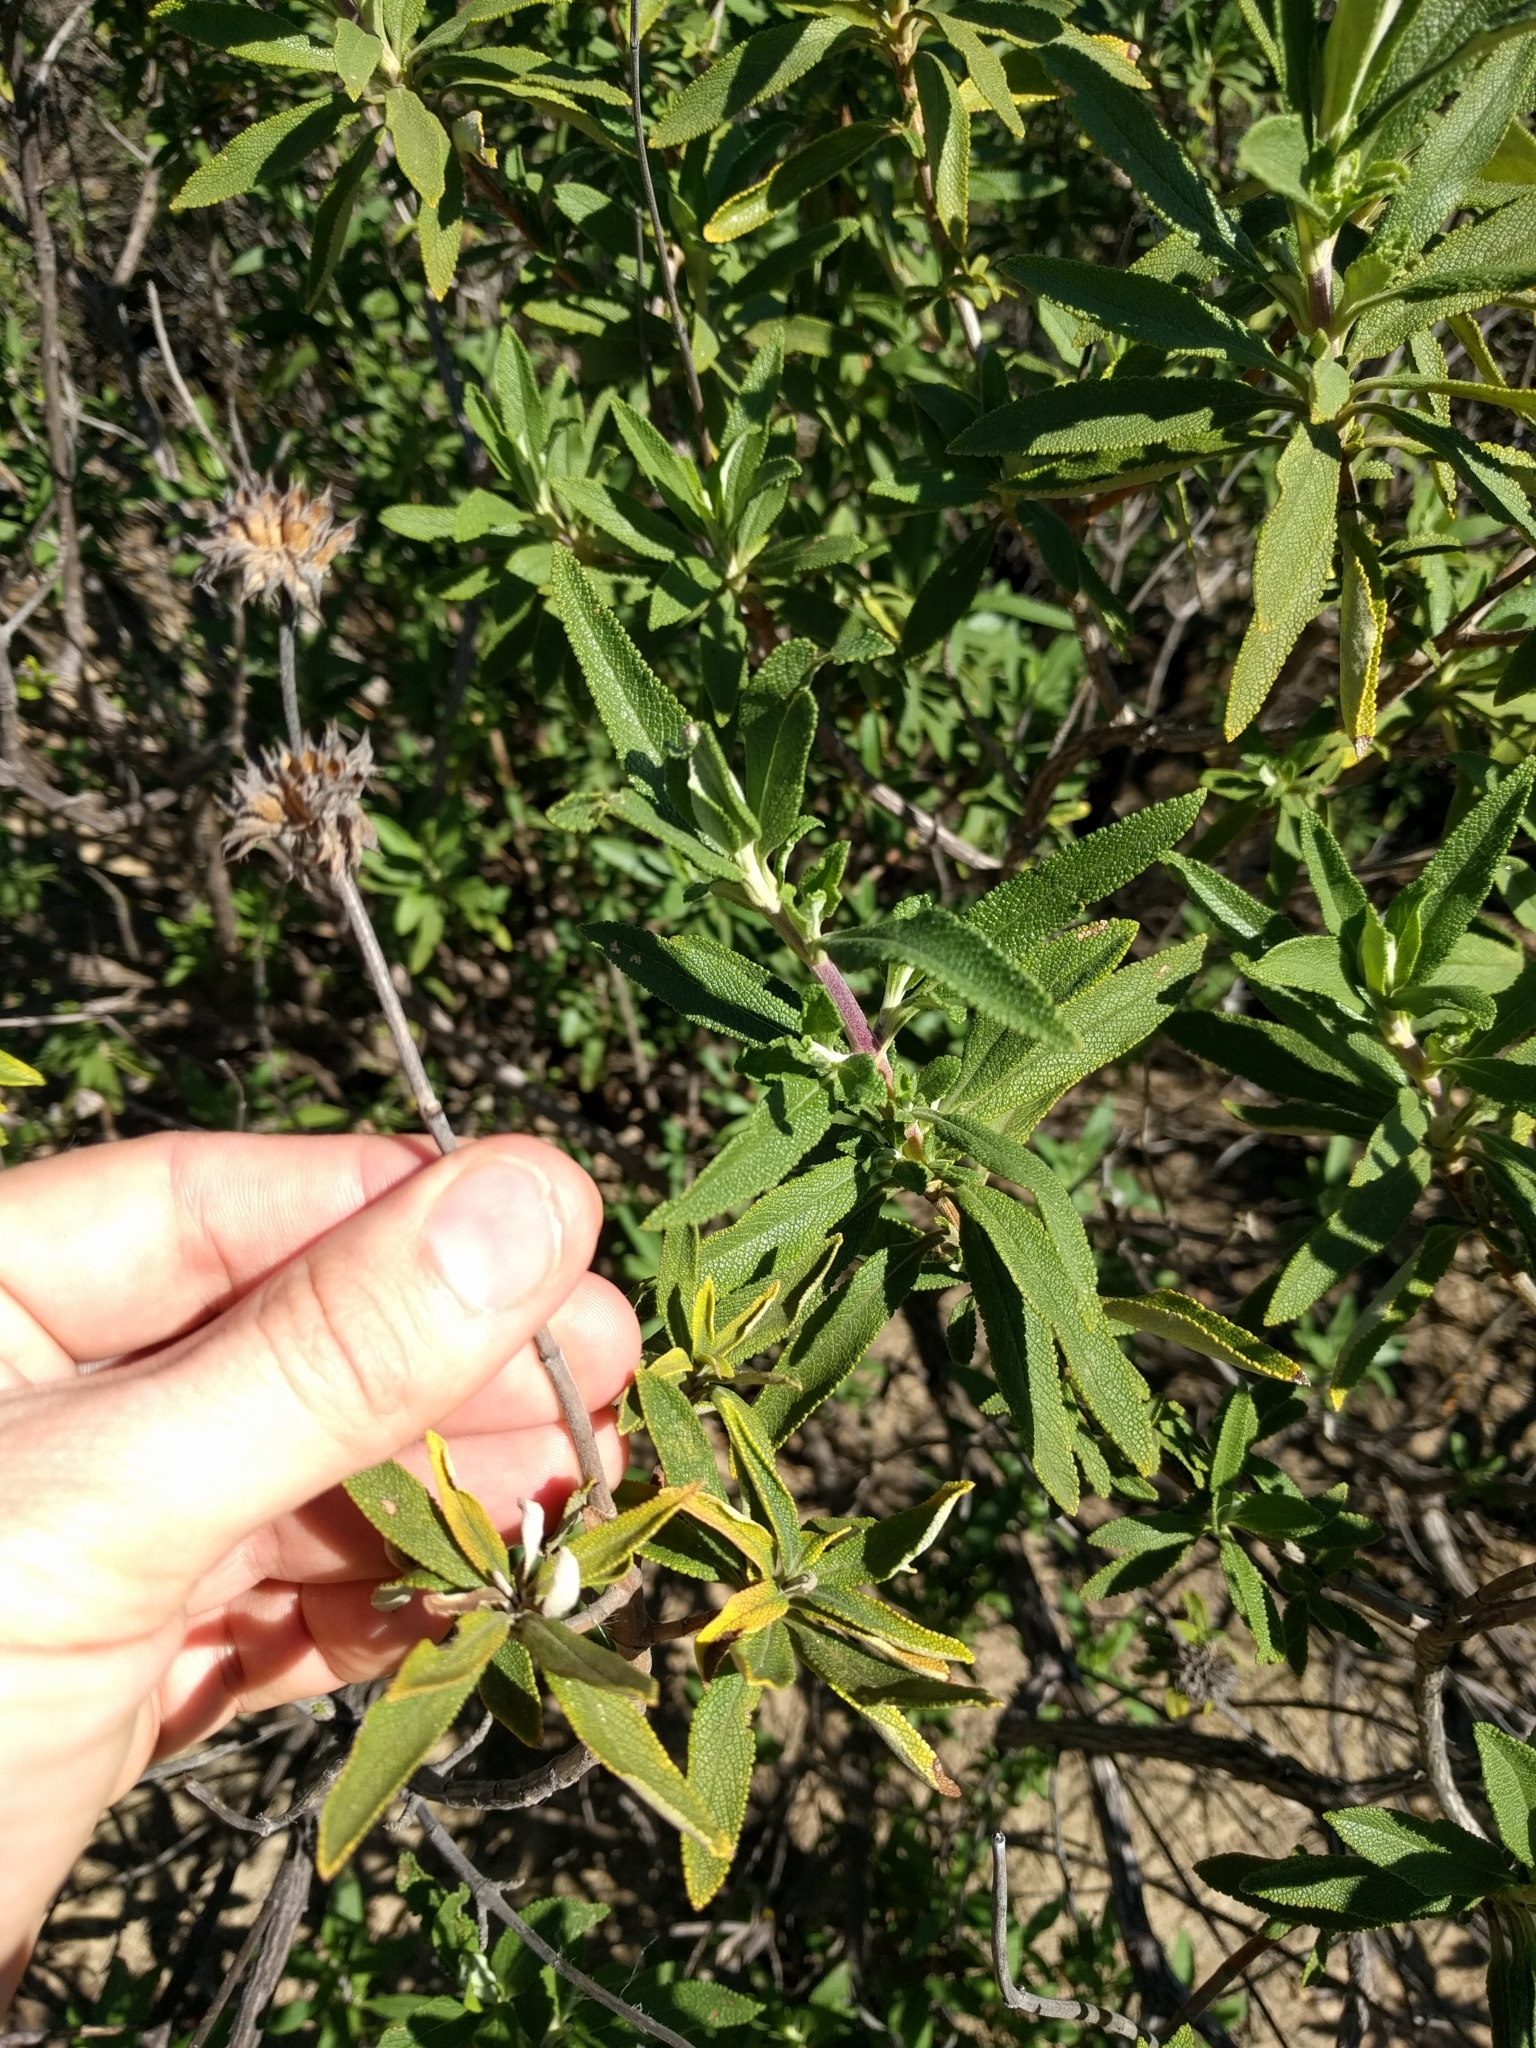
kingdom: Plantae
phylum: Tracheophyta
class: Magnoliopsida
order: Lamiales
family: Lamiaceae
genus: Salvia
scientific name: Salvia mellifera
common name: Black sage
